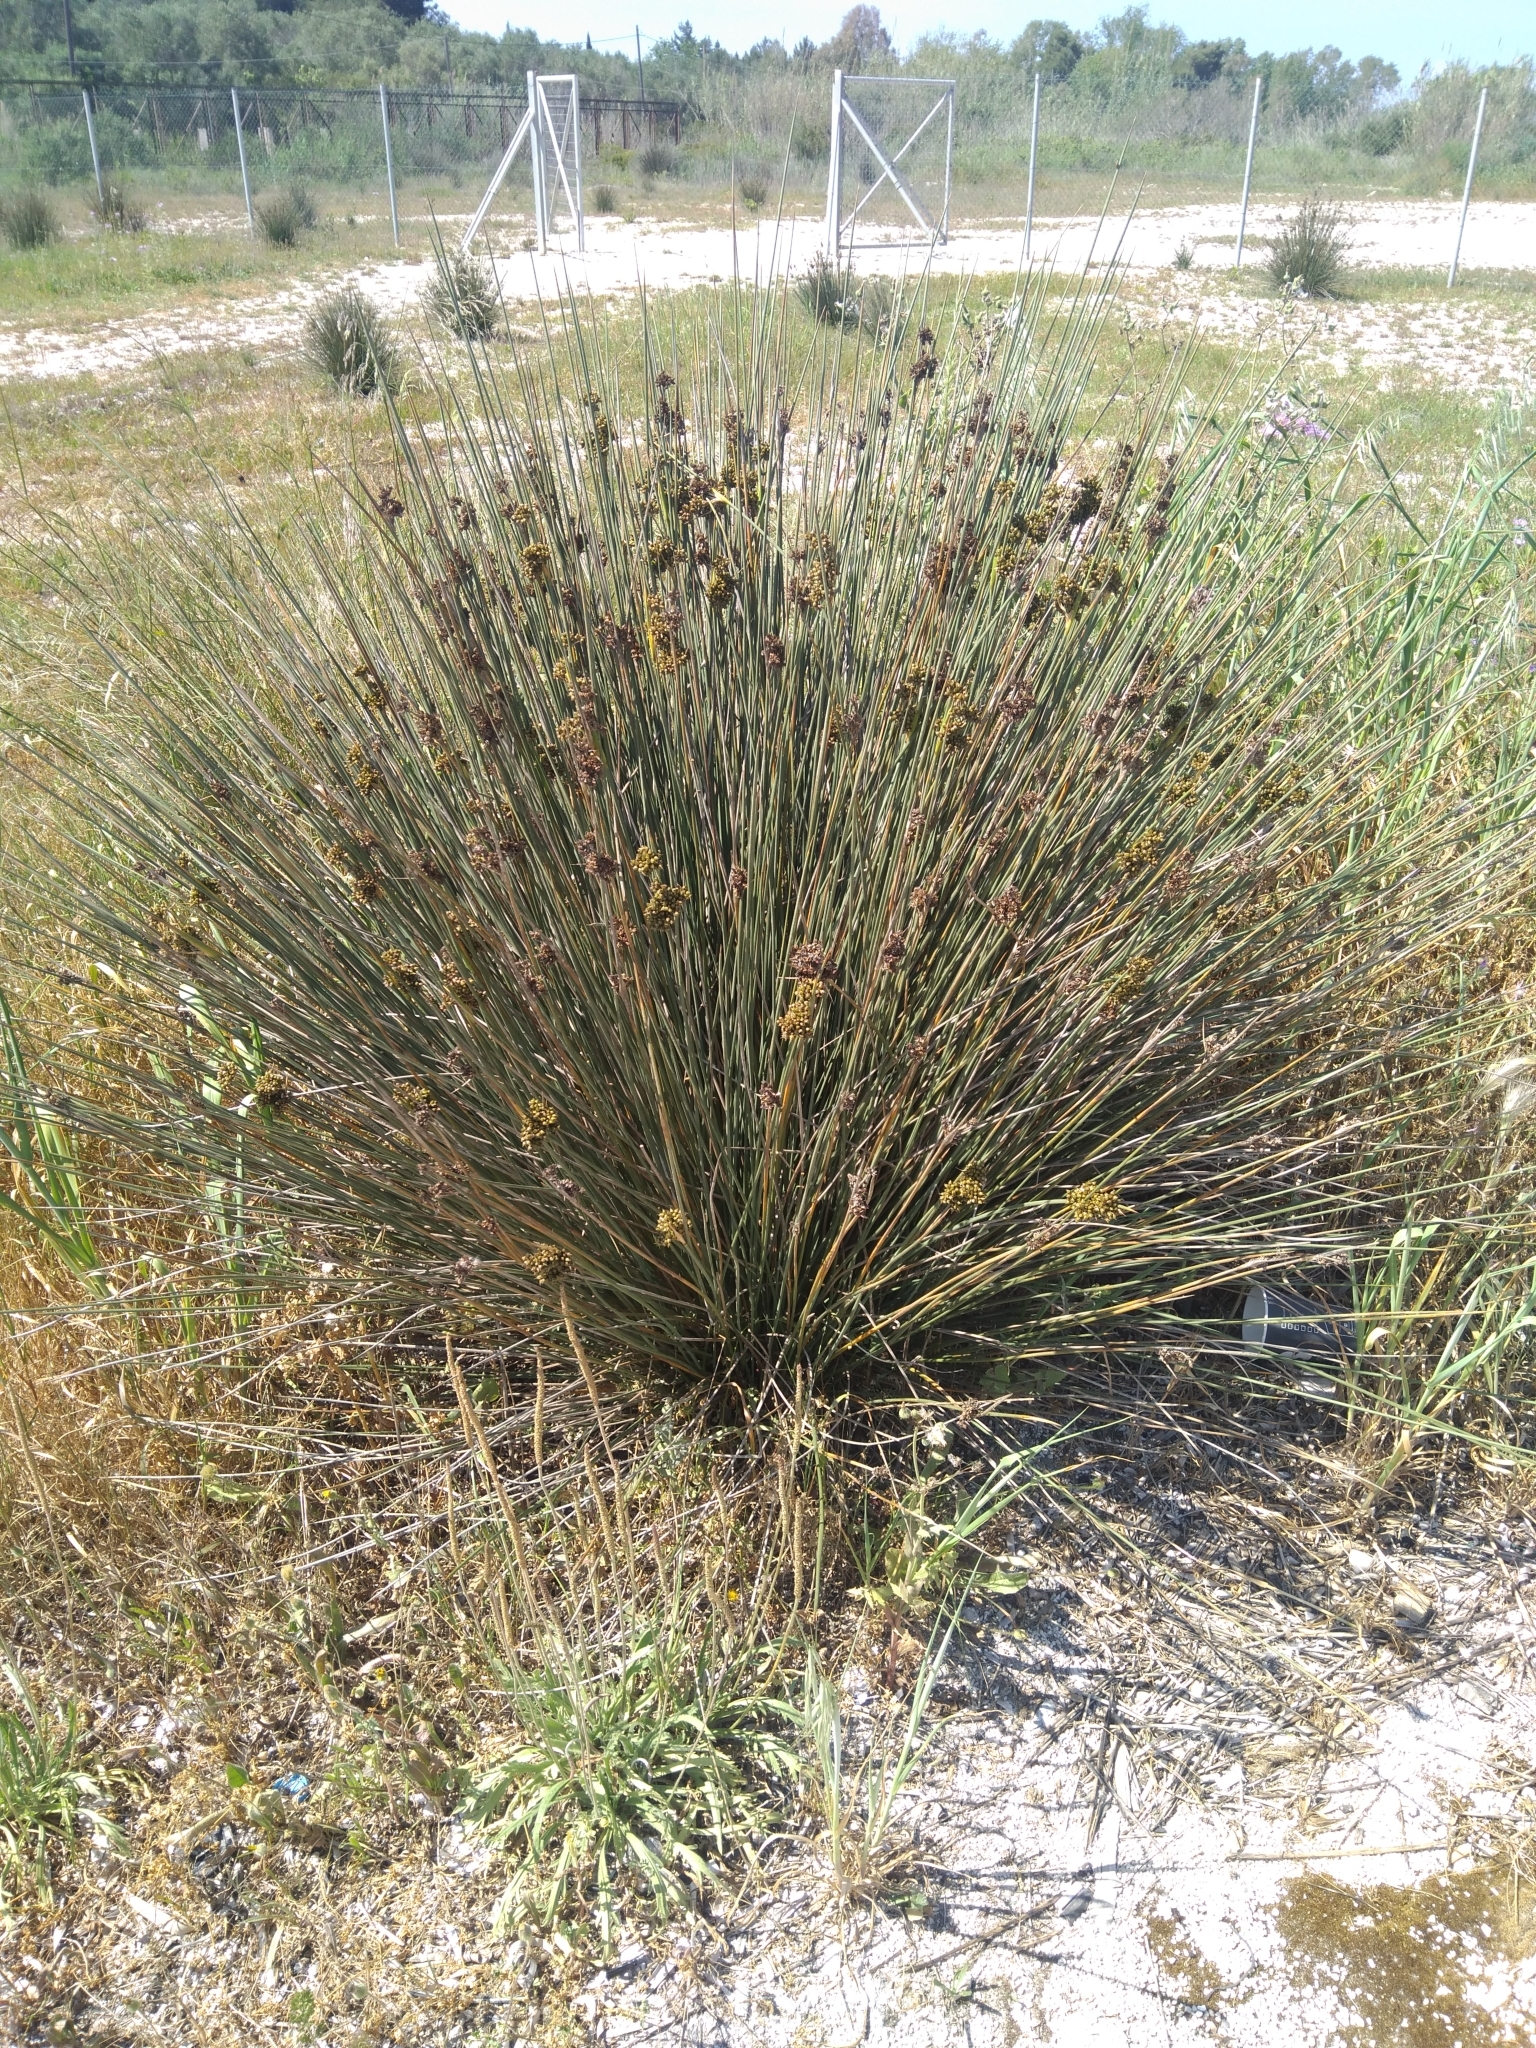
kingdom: Plantae
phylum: Tracheophyta
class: Liliopsida
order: Poales
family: Juncaceae
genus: Juncus
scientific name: Juncus acutus
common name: Sharp rush
